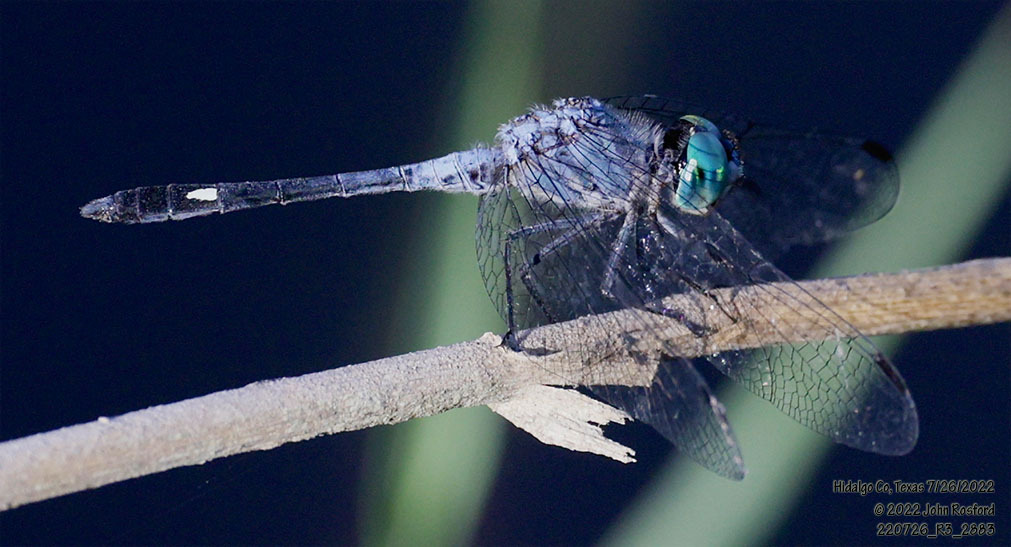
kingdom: Animalia
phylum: Arthropoda
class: Insecta
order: Odonata
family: Libellulidae
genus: Micrathyria
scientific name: Micrathyria aequalis
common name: Spot-tailed dasher
